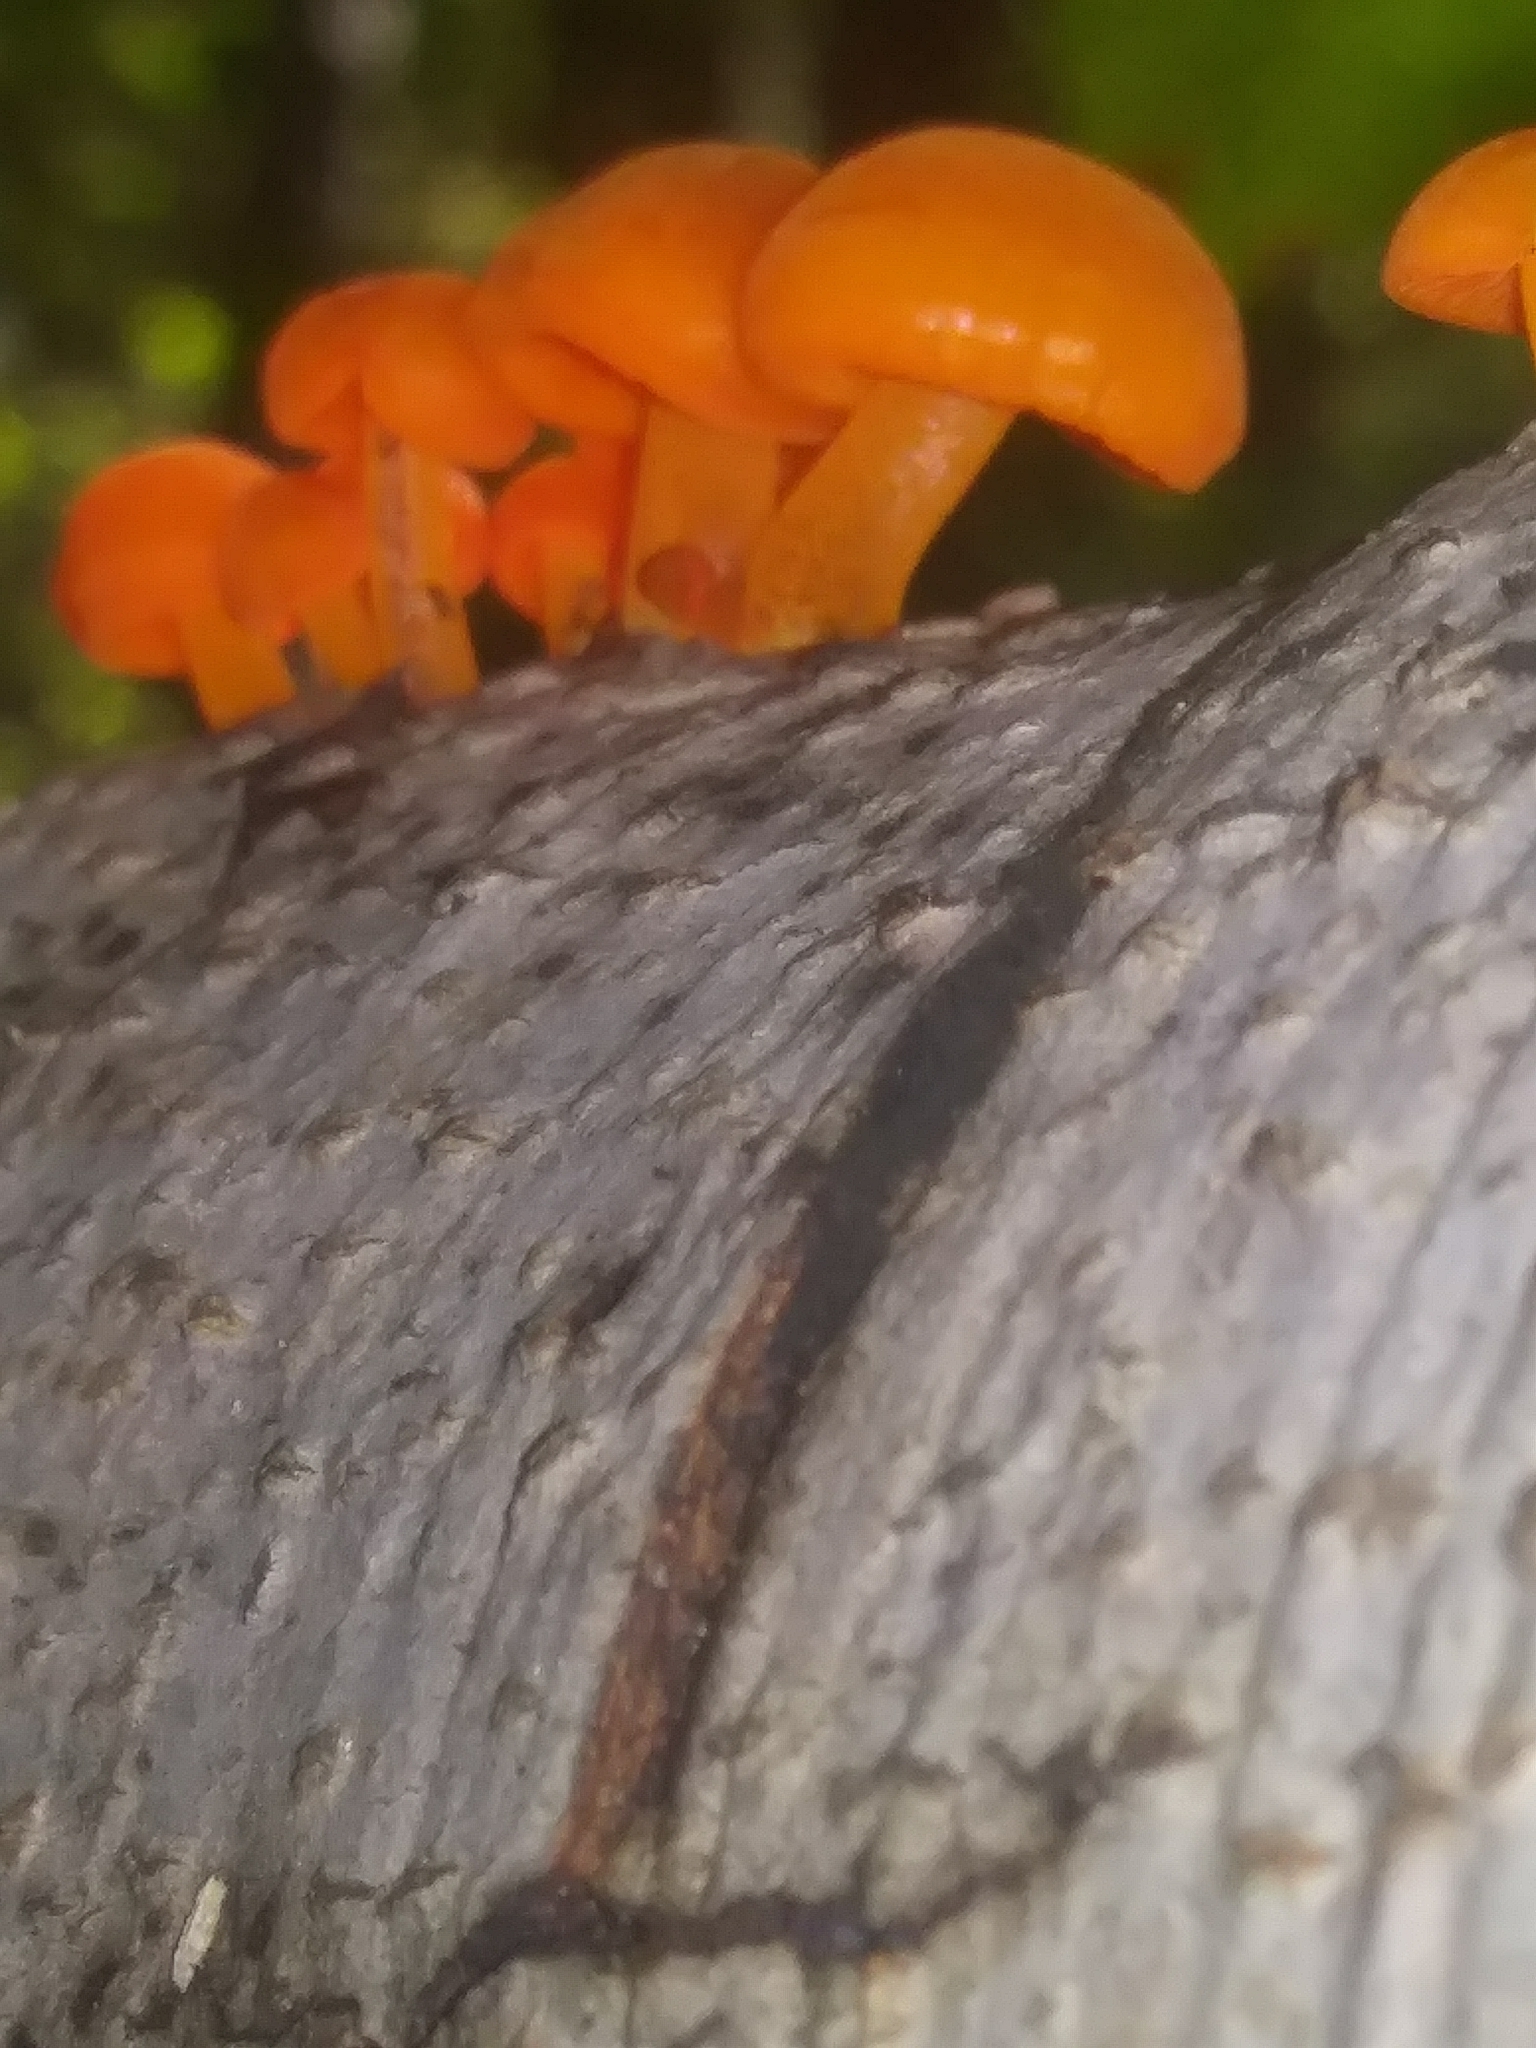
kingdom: Fungi
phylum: Basidiomycota
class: Agaricomycetes
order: Agaricales
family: Mycenaceae
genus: Mycena
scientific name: Mycena leaiana
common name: Orange mycena
